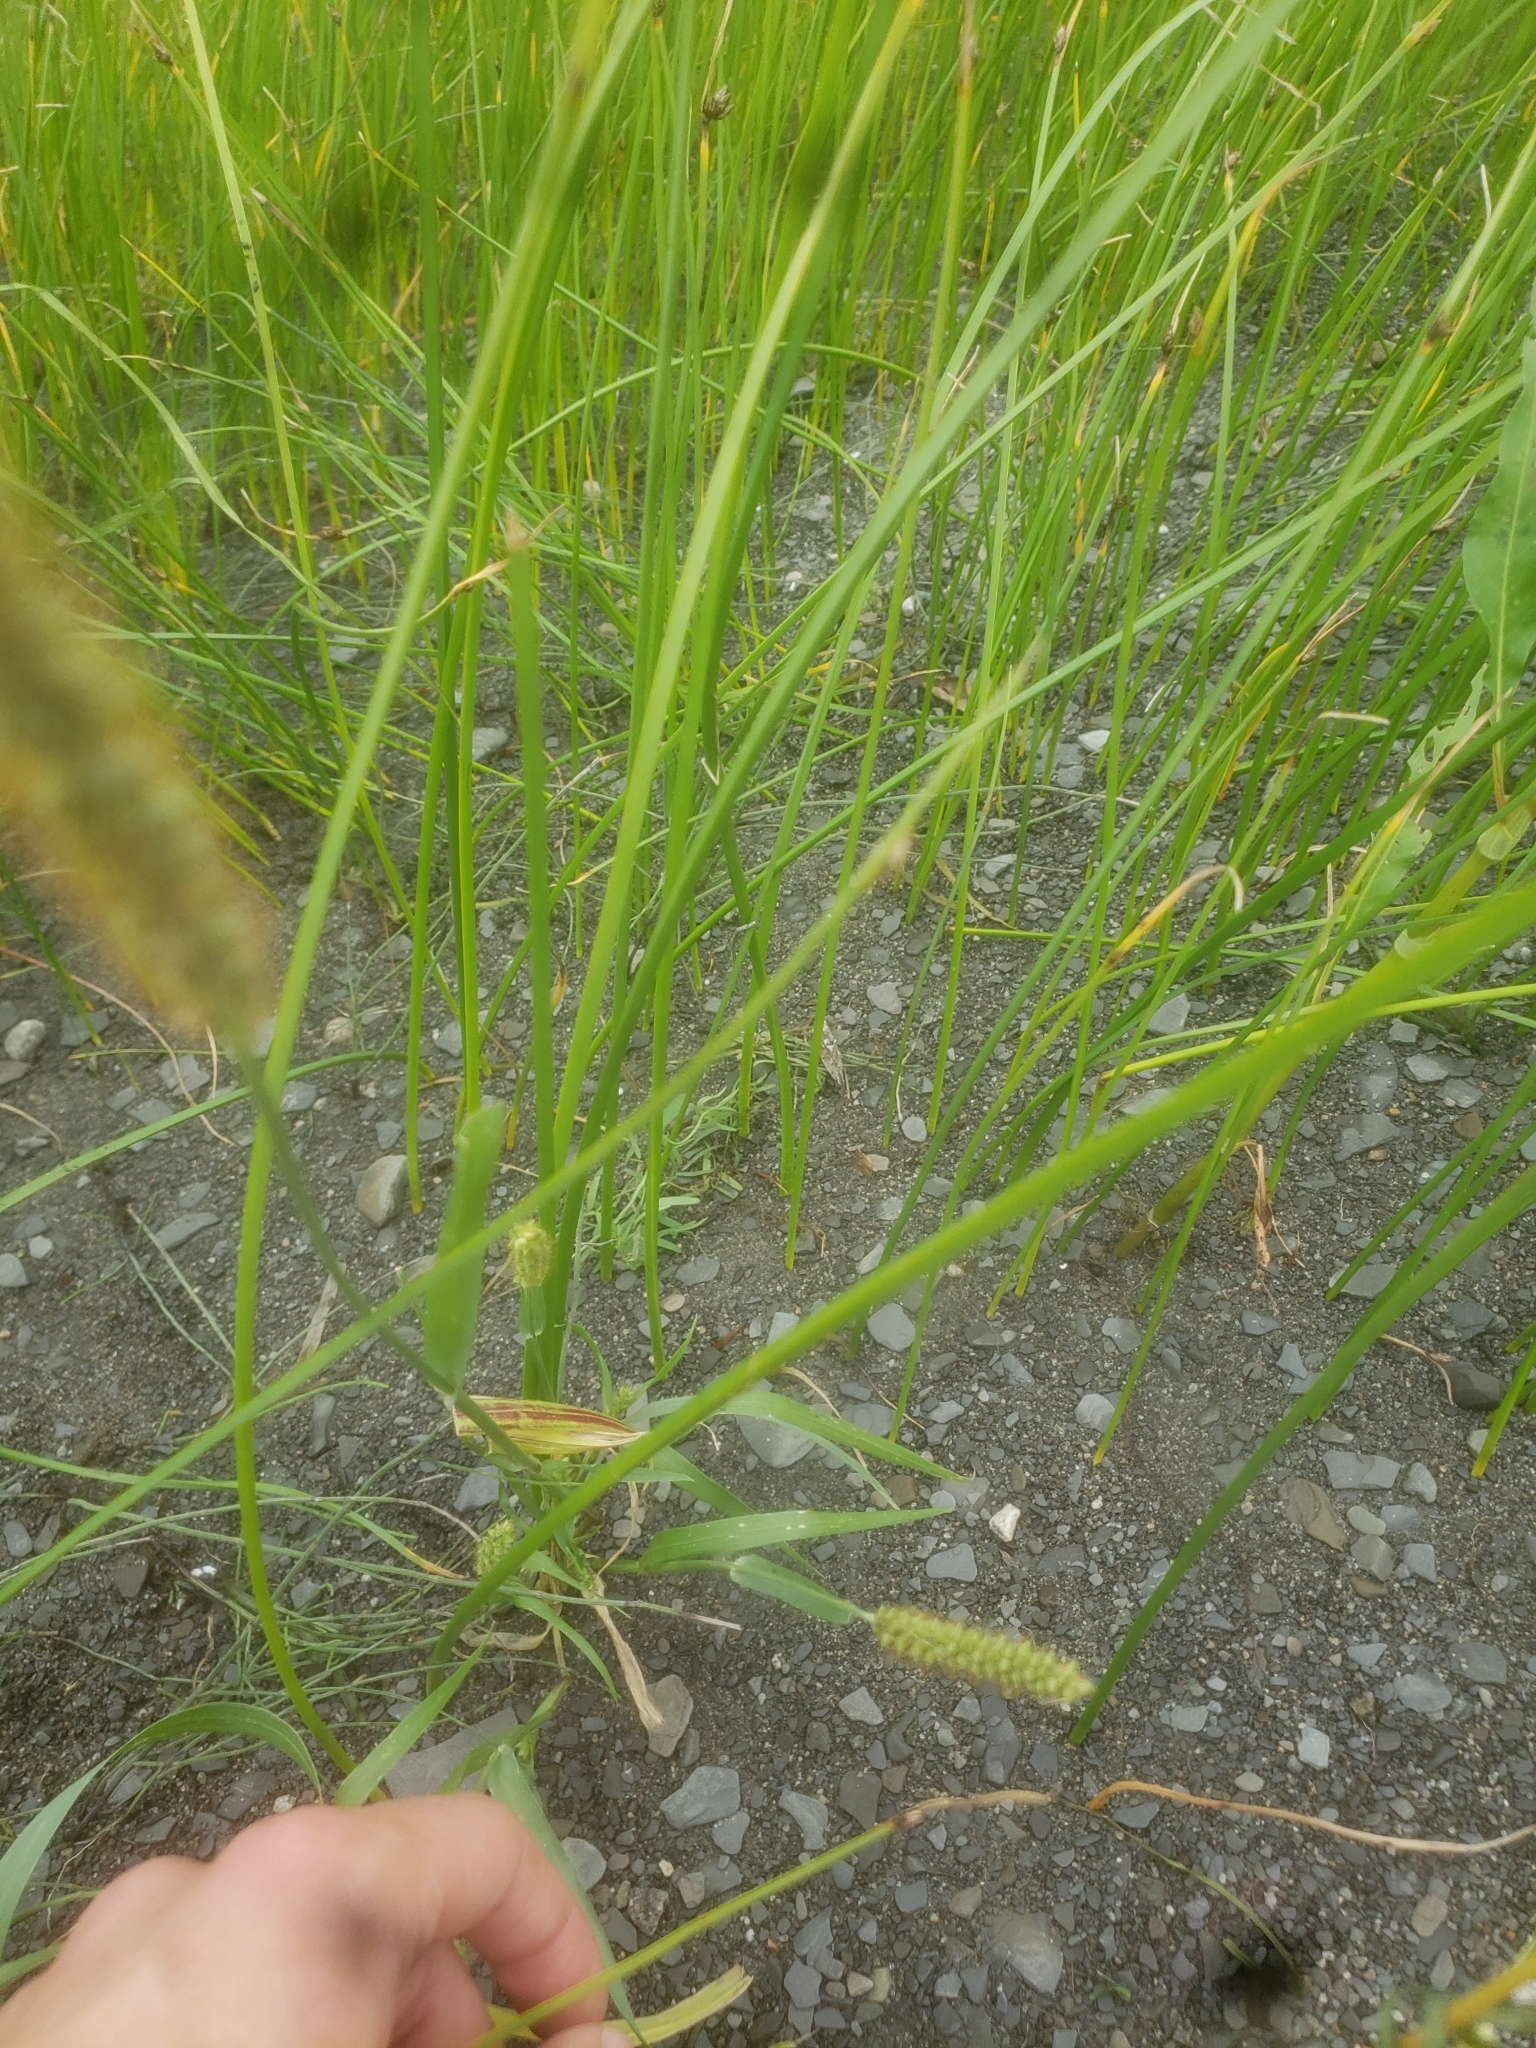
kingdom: Plantae
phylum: Tracheophyta
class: Liliopsida
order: Poales
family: Poaceae
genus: Setaria
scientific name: Setaria pumila
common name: Yellow bristle-grass
